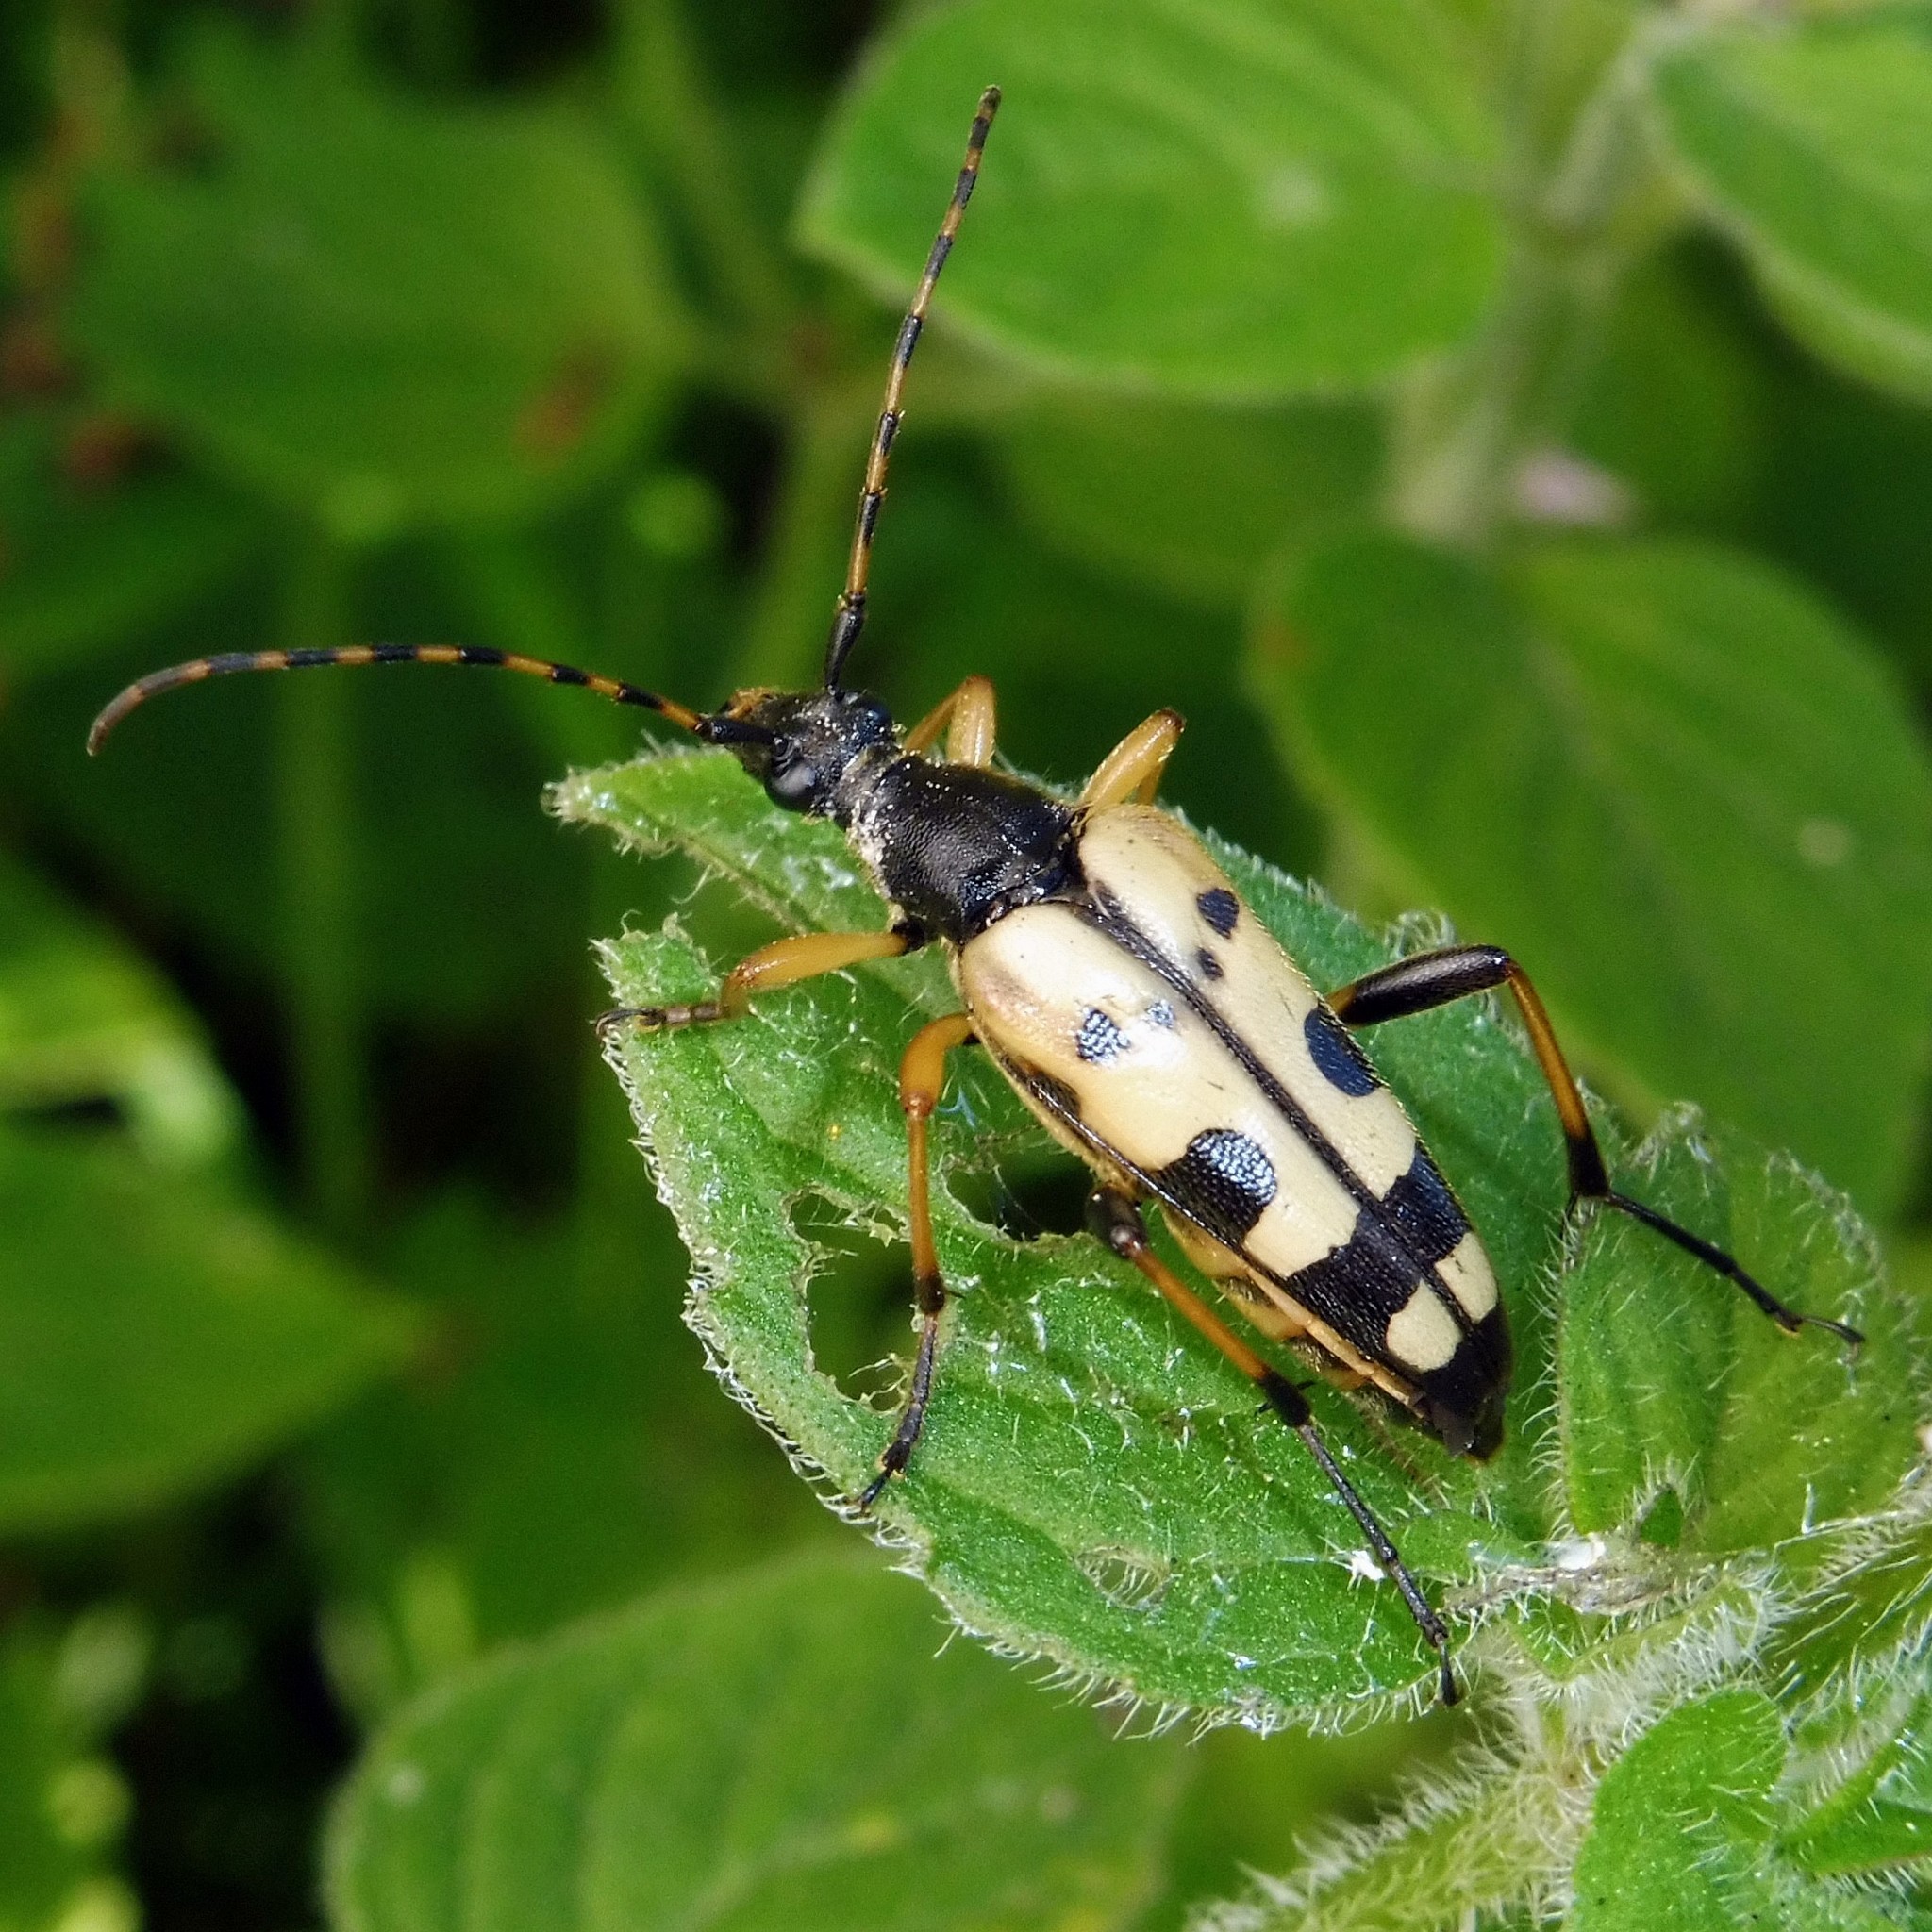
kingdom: Animalia
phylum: Arthropoda
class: Insecta
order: Coleoptera
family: Cerambycidae
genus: Rutpela
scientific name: Rutpela maculata
